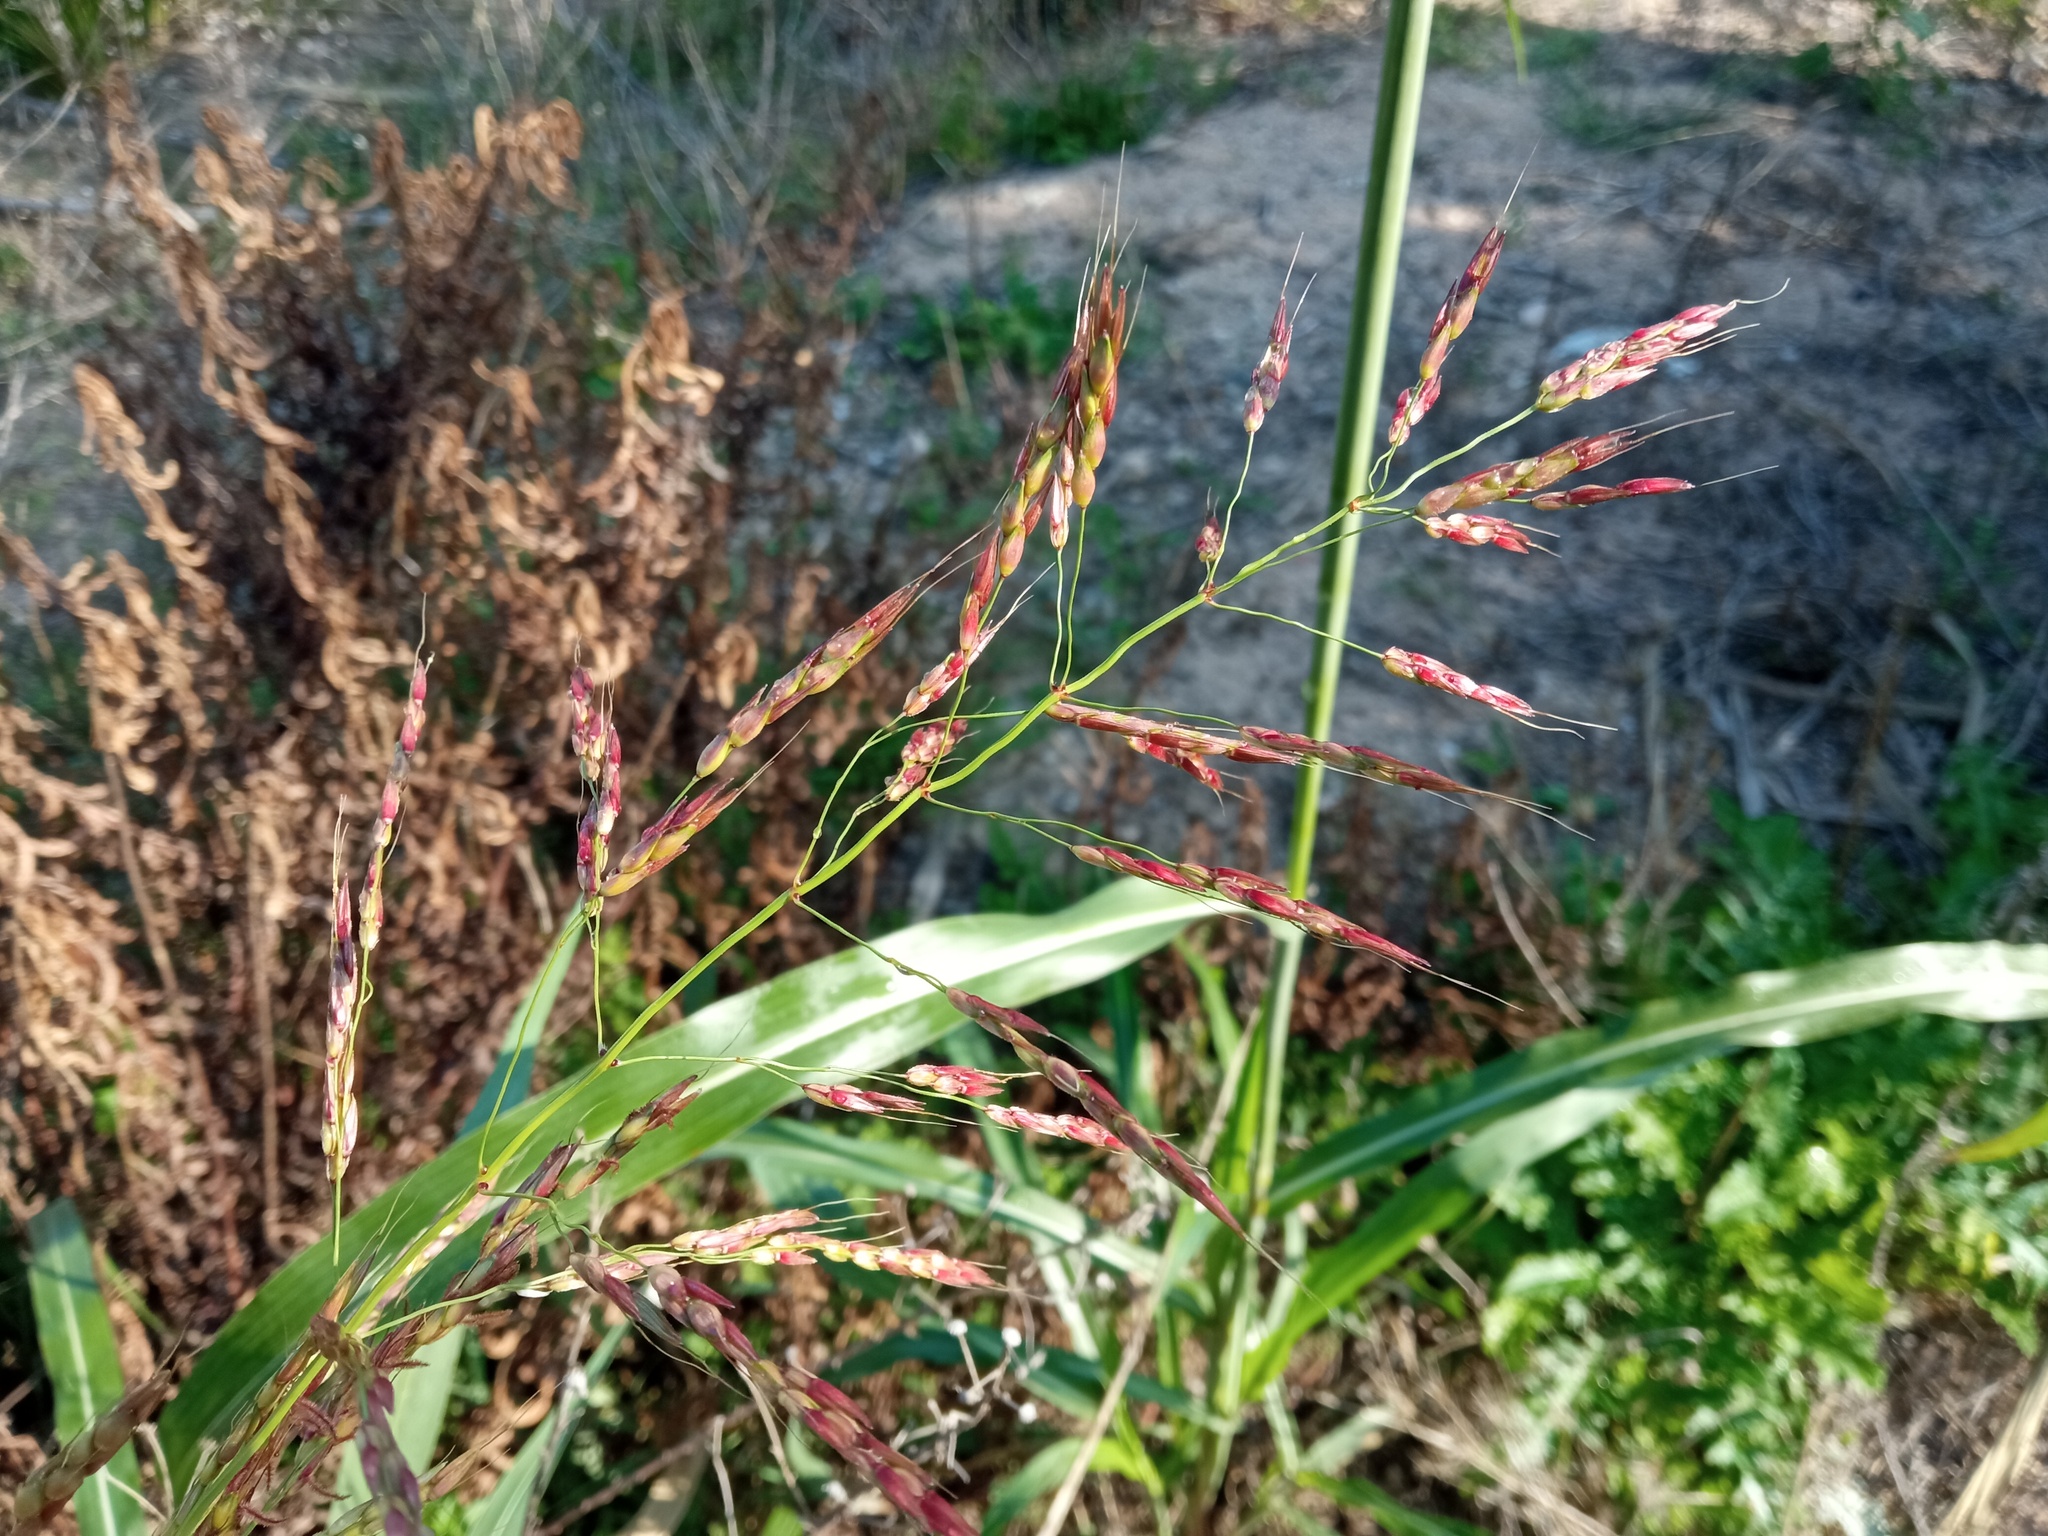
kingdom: Plantae
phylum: Tracheophyta
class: Liliopsida
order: Poales
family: Poaceae
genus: Sorghum
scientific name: Sorghum halepense
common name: Johnson-grass
